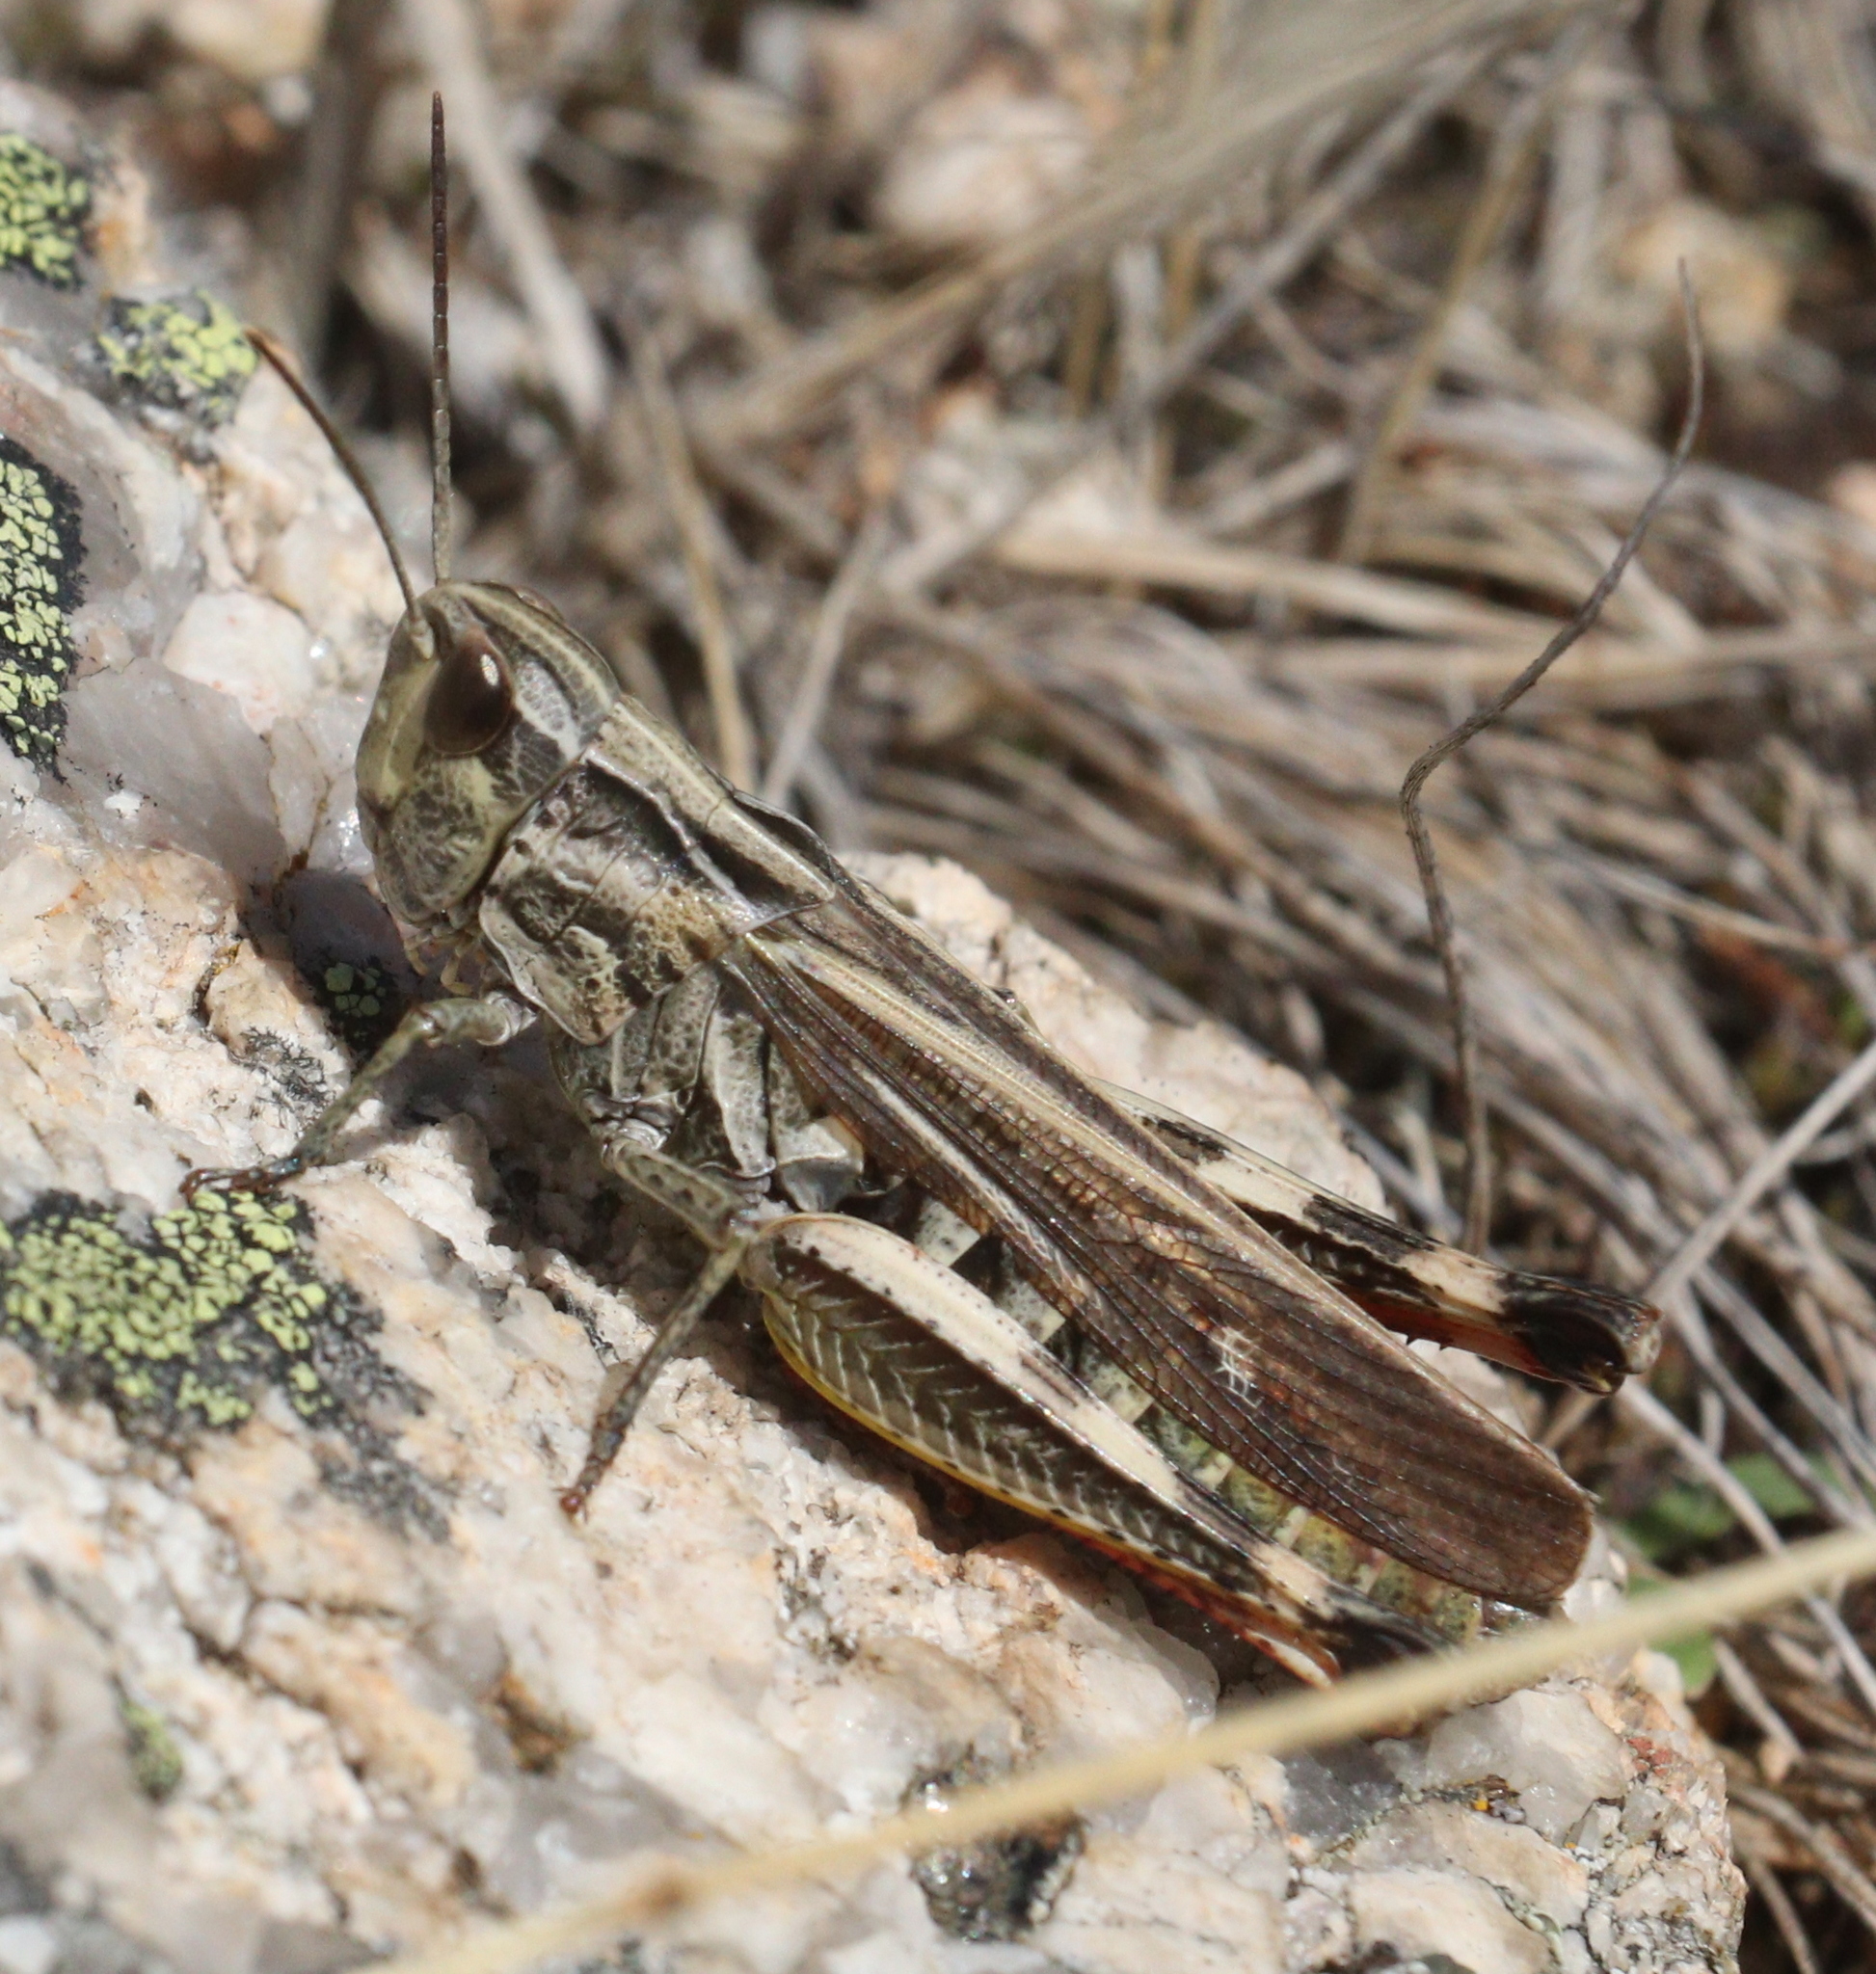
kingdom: Animalia
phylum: Arthropoda
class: Insecta
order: Orthoptera
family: Acrididae
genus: Chorthippus
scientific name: Chorthippus binotatus
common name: Two-marked grasshopper
